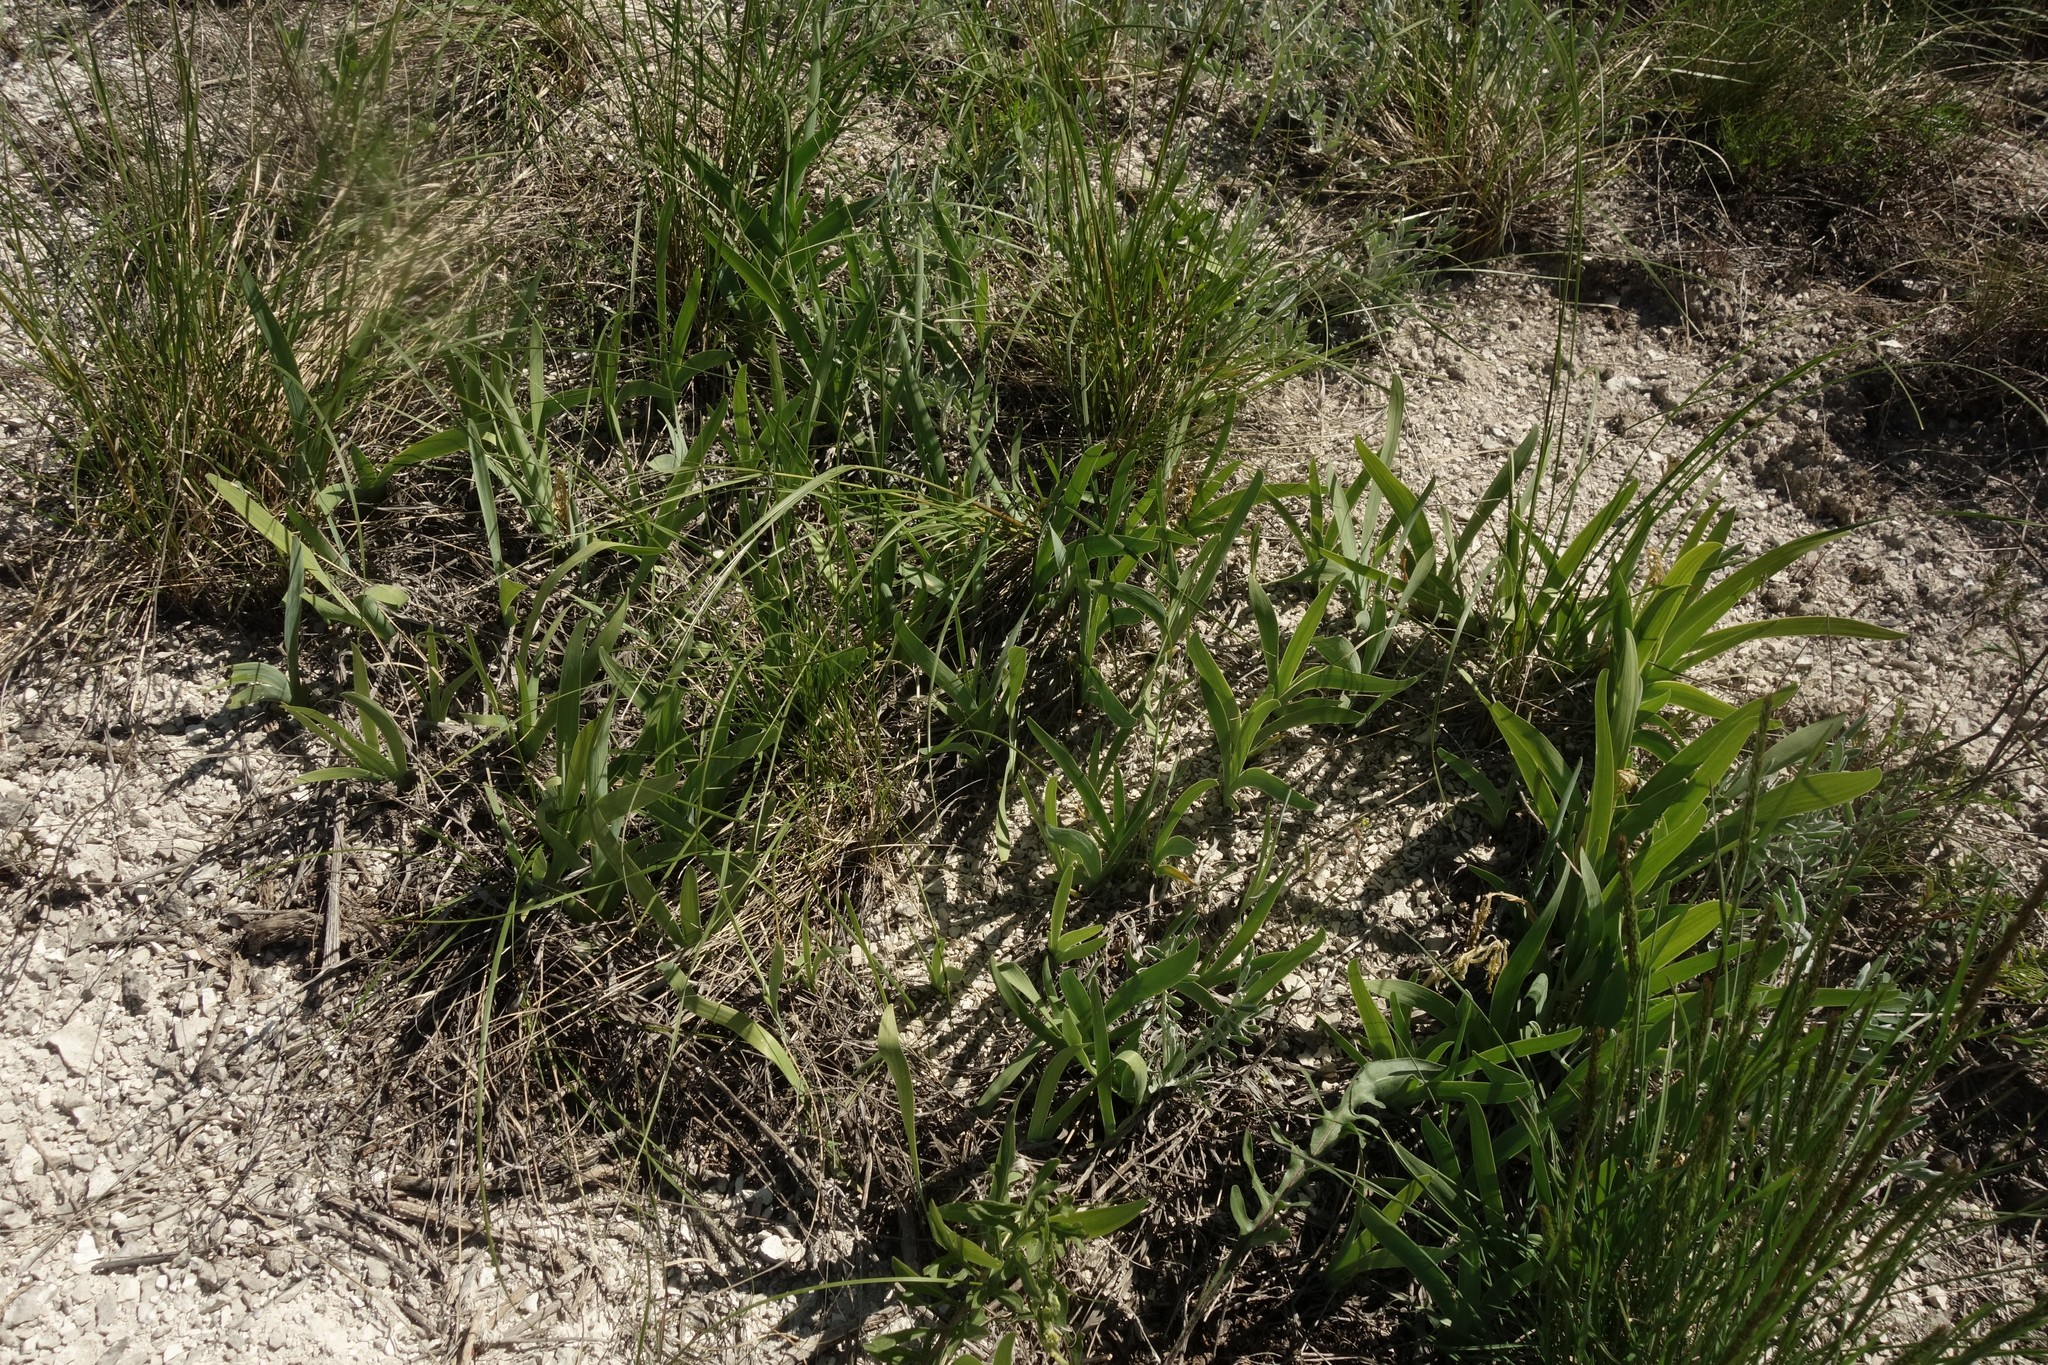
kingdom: Plantae
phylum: Tracheophyta
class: Liliopsida
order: Asparagales
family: Iridaceae
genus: Iris
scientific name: Iris pumila
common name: Dwarf iris
